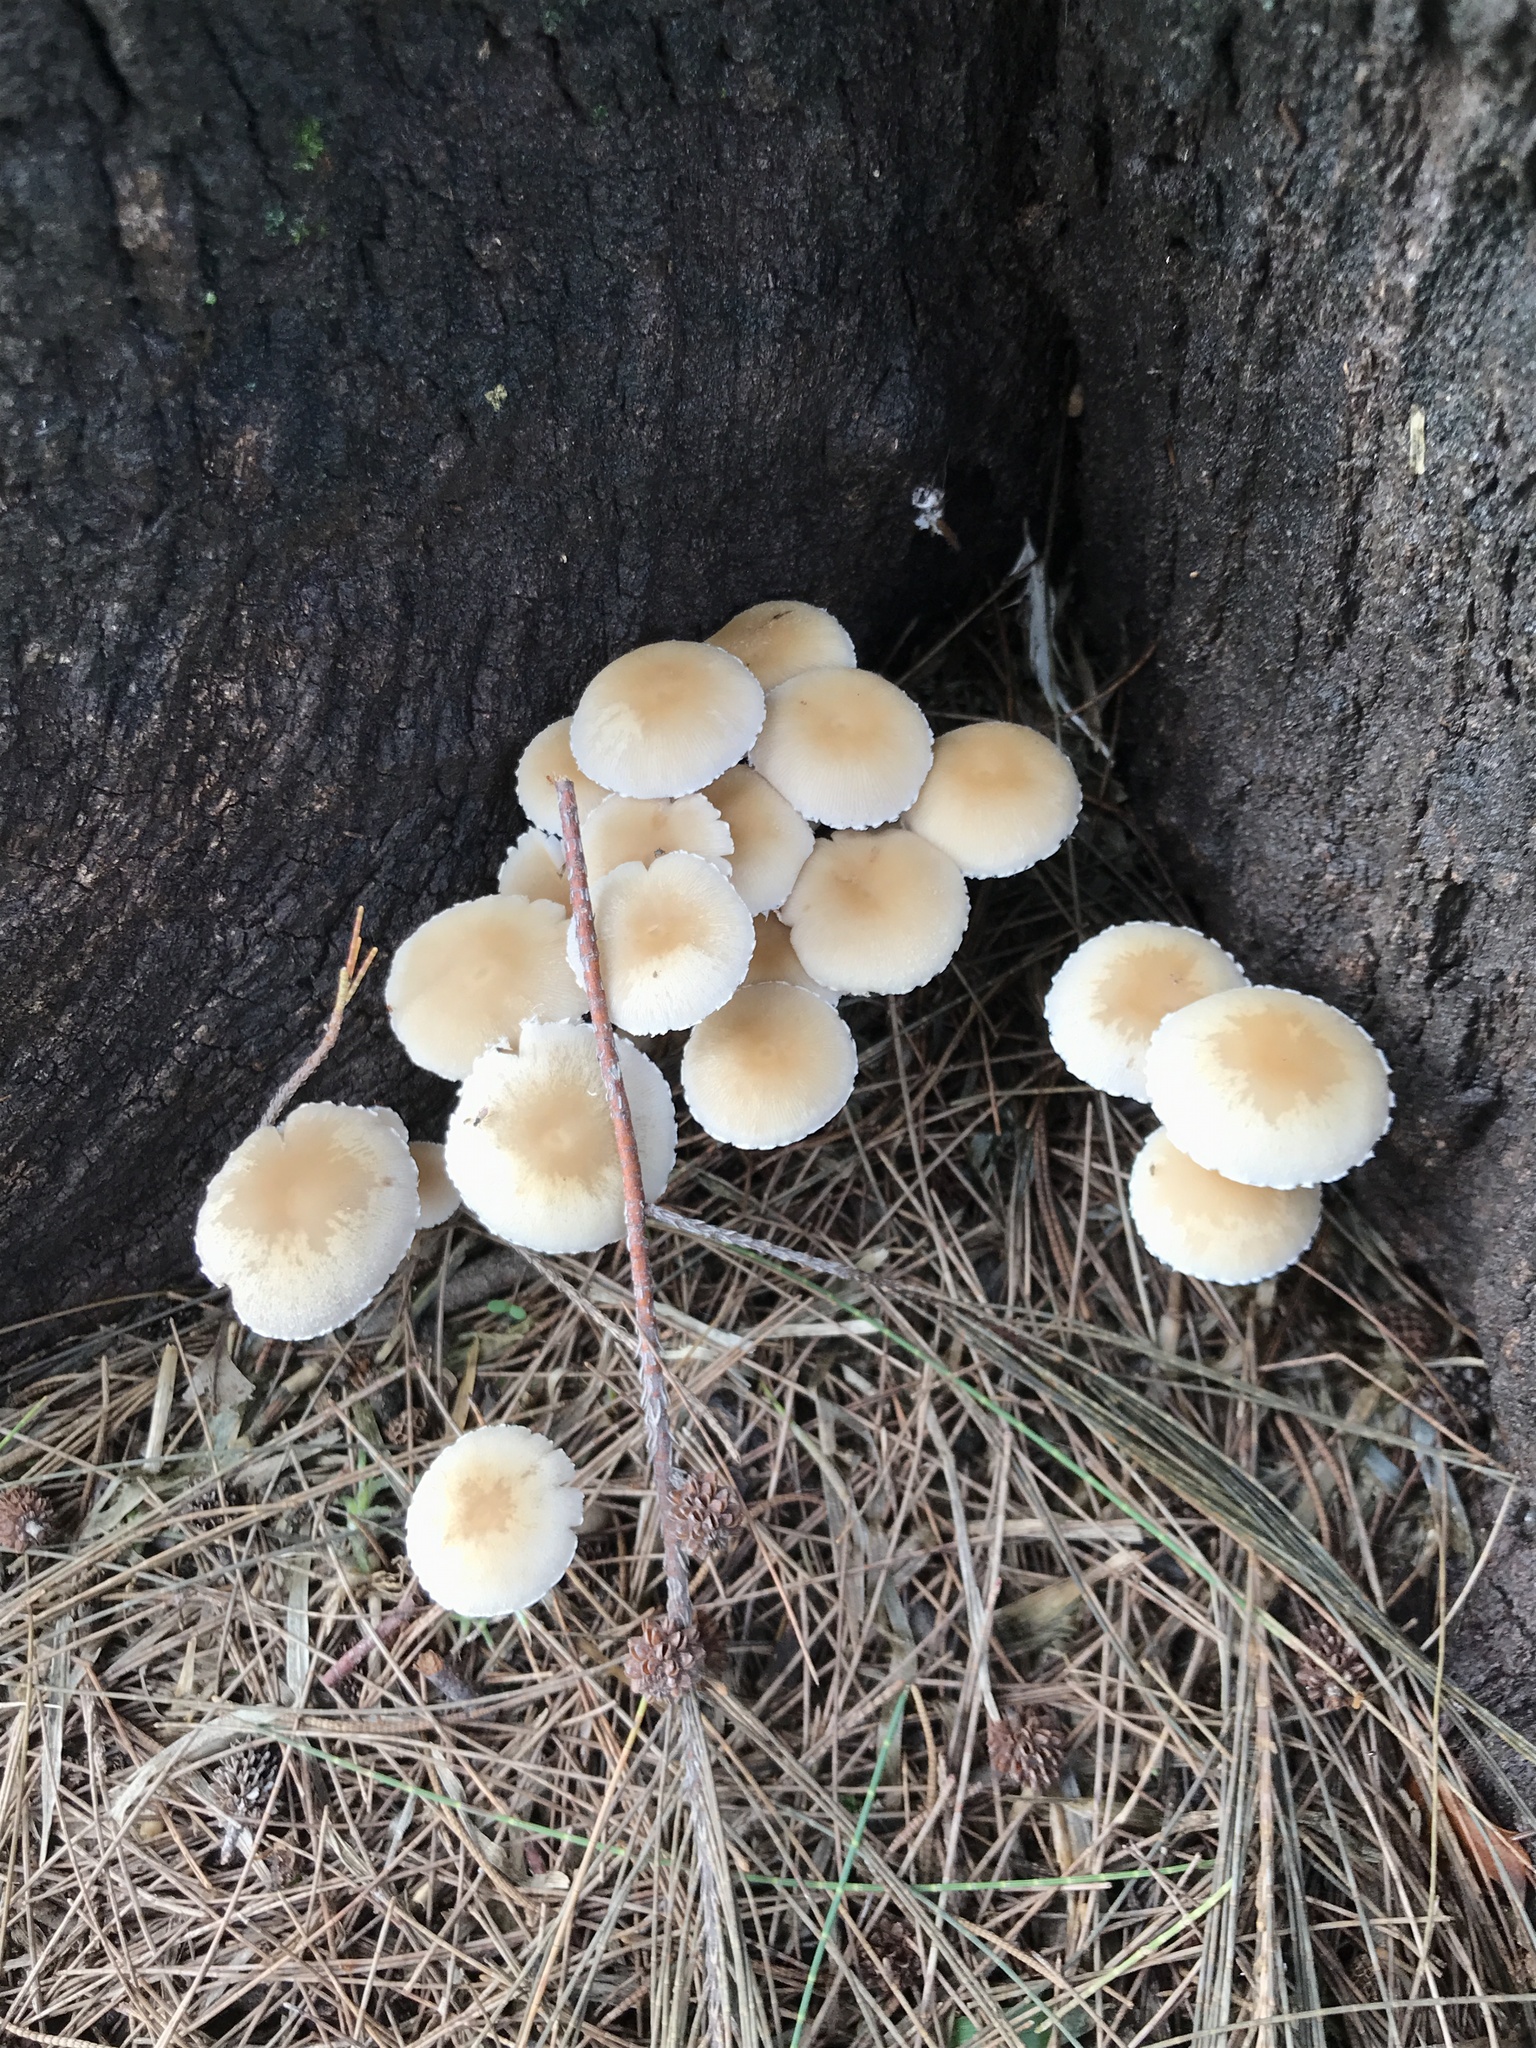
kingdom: Fungi
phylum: Basidiomycota
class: Agaricomycetes
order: Agaricales
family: Psathyrellaceae
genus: Candolleomyces
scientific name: Candolleomyces candolleanus
